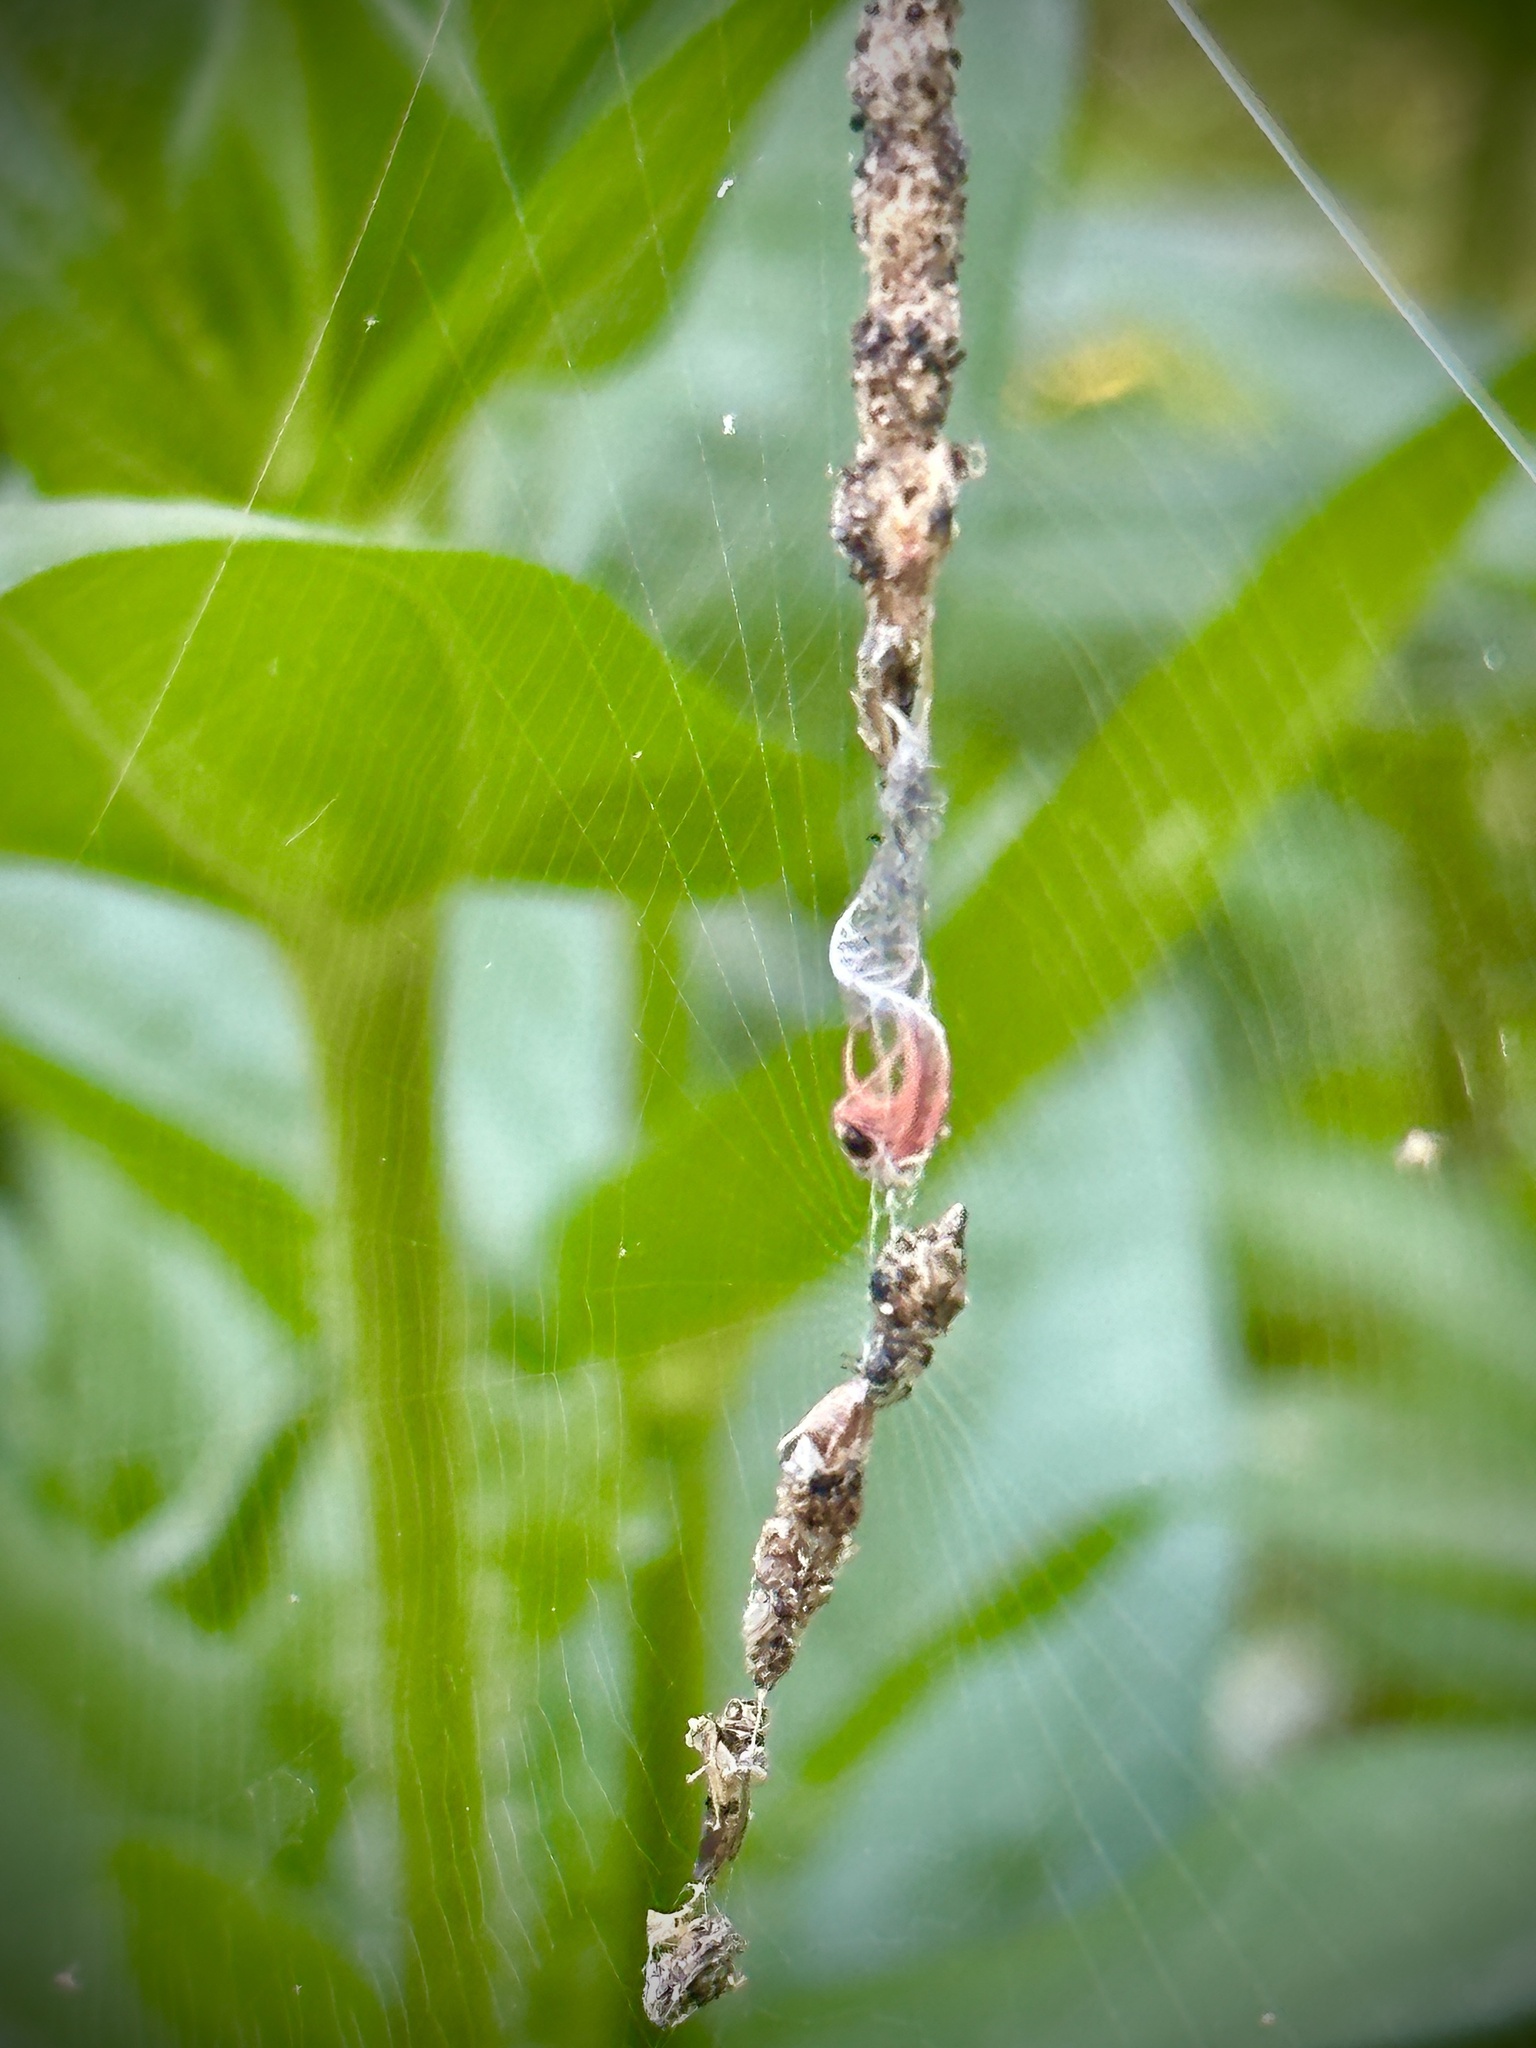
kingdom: Animalia
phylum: Arthropoda
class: Arachnida
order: Araneae
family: Araneidae
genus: Cyclosa
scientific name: Cyclosa turbinata
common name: Orb weavers
